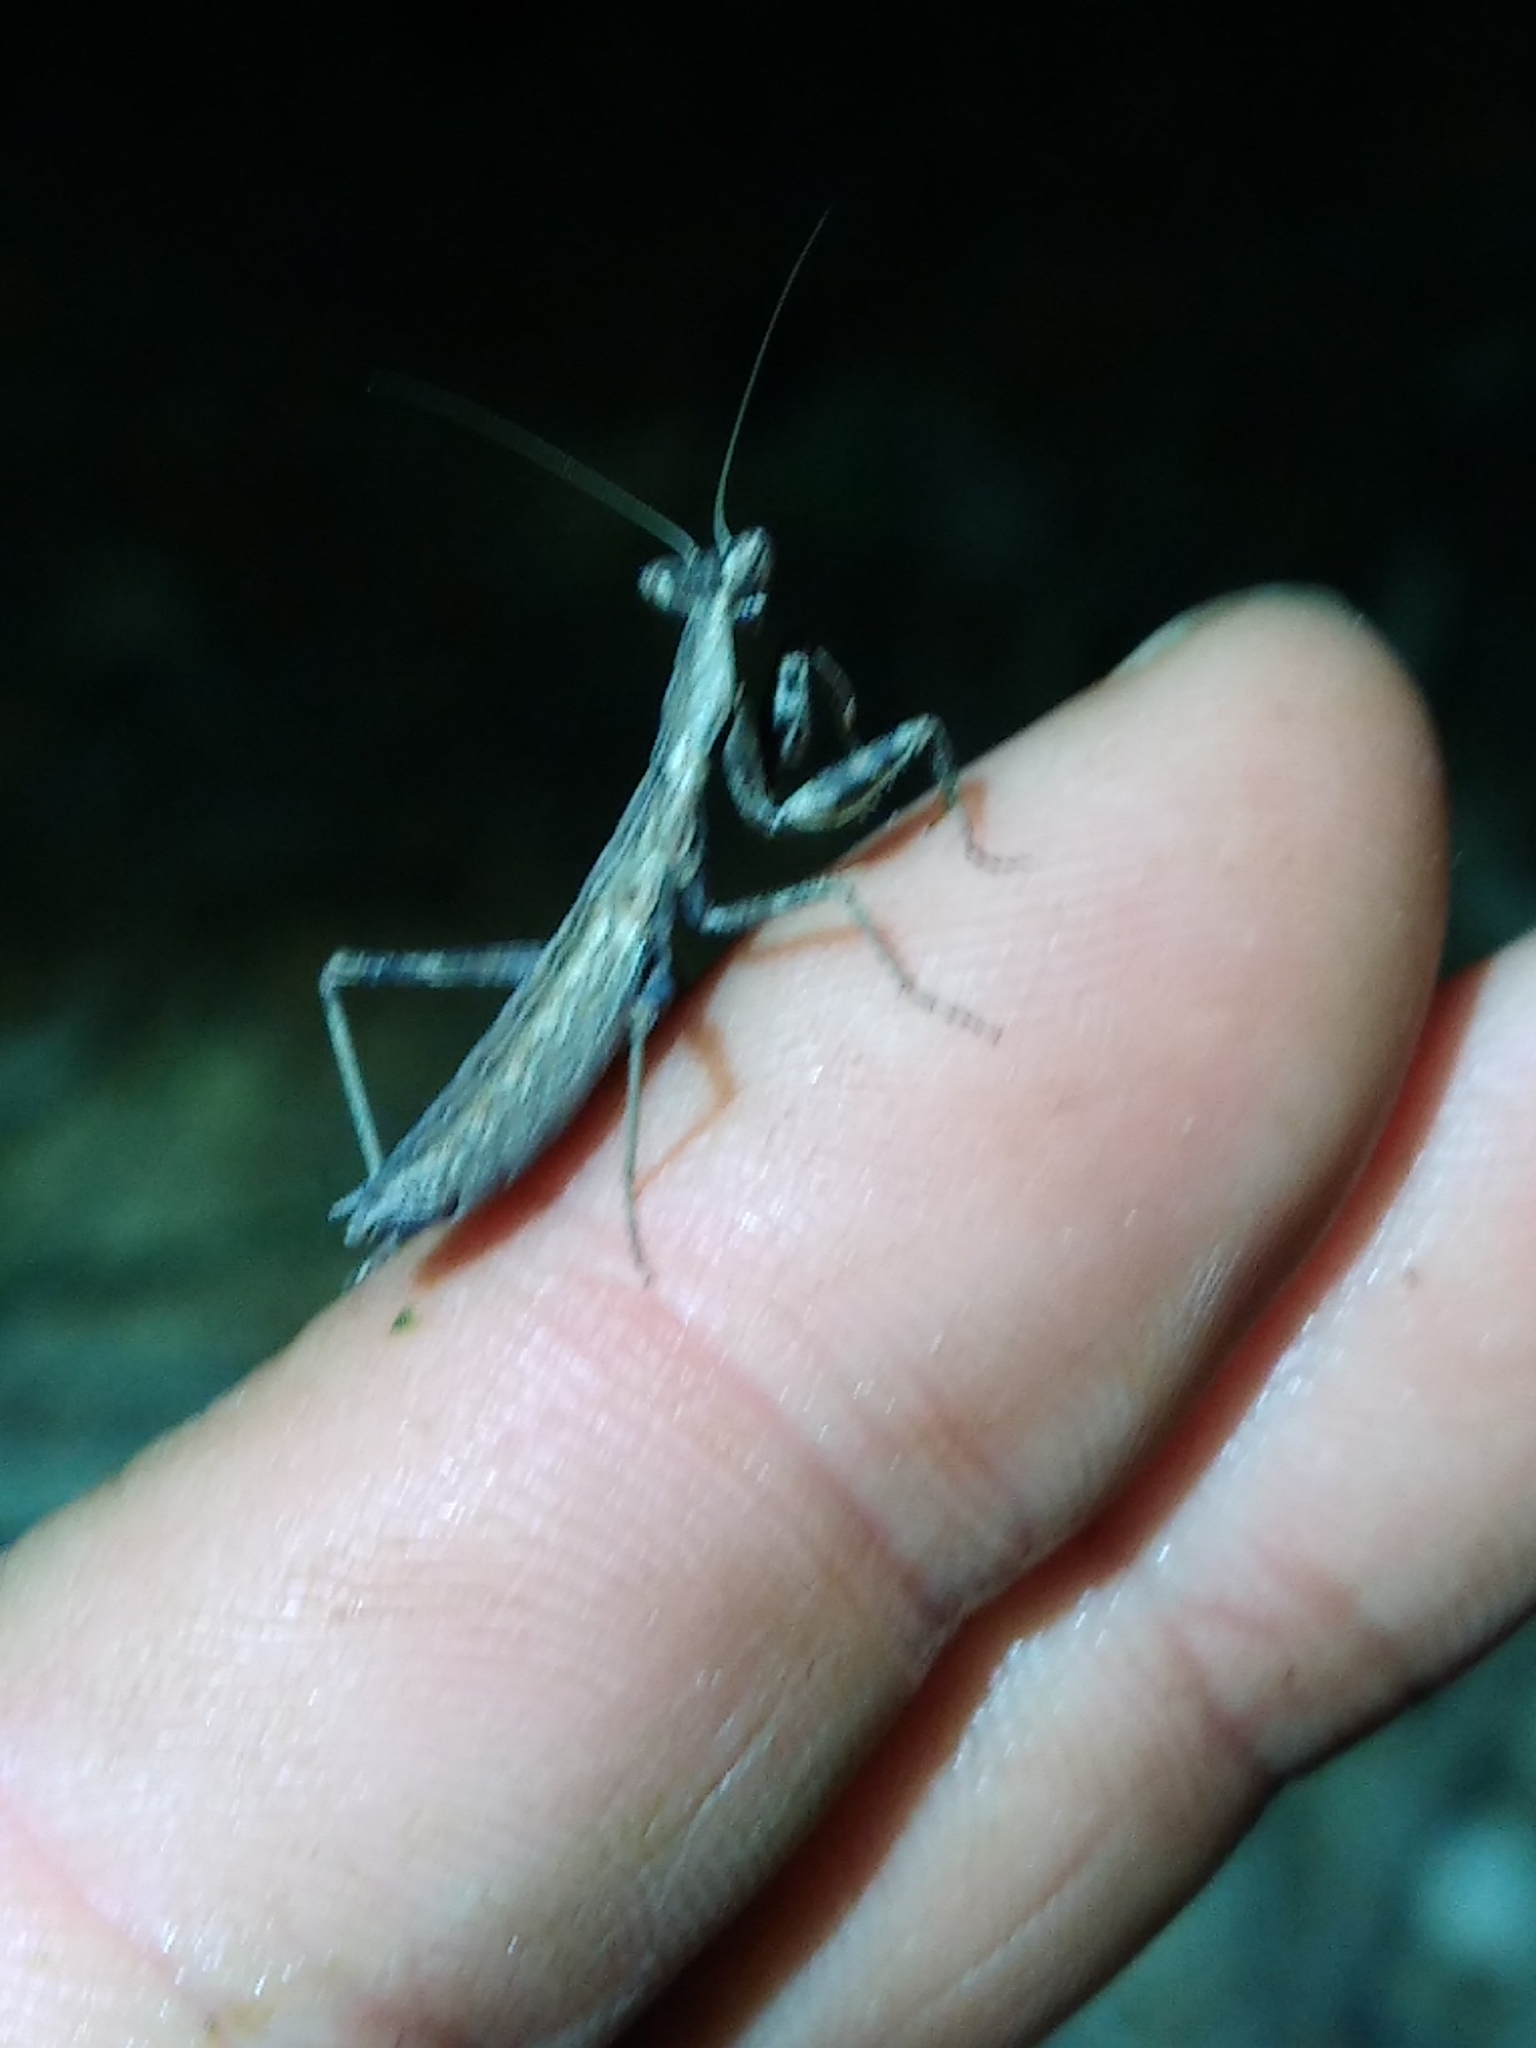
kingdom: Animalia
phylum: Arthropoda
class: Insecta
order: Mantodea
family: Amelidae
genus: Ameles
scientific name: Ameles decolor
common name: Dwarf mantis
